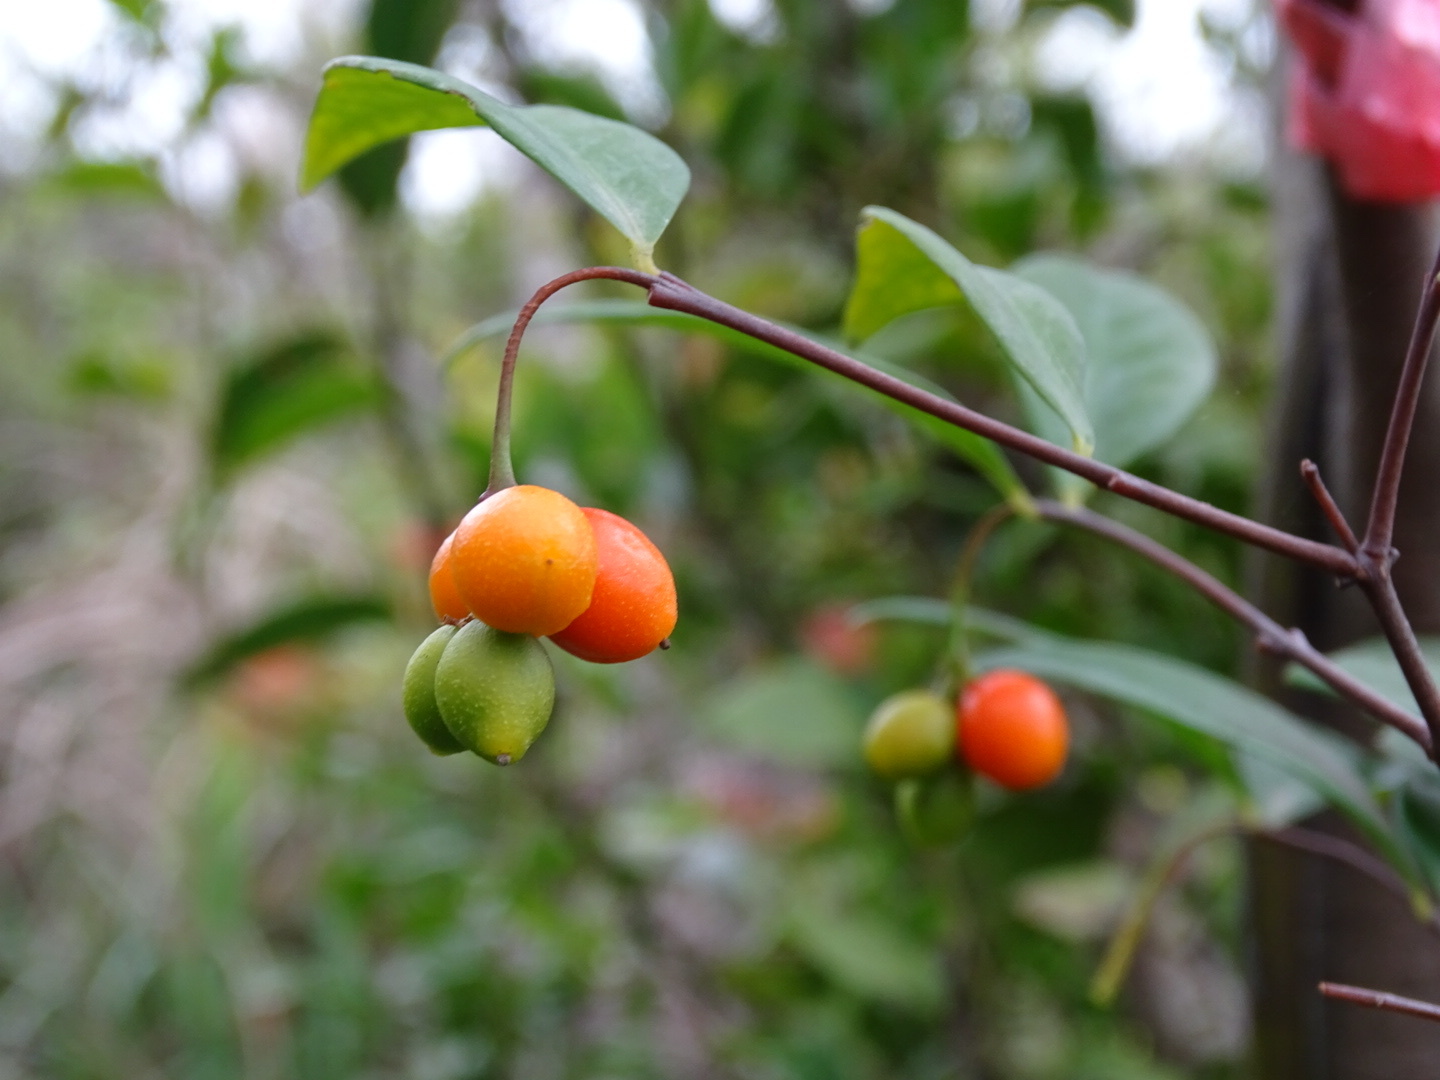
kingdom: Plantae
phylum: Tracheophyta
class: Magnoliopsida
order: Malvales
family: Thymelaeaceae
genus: Wikstroemia
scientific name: Wikstroemia nutans
